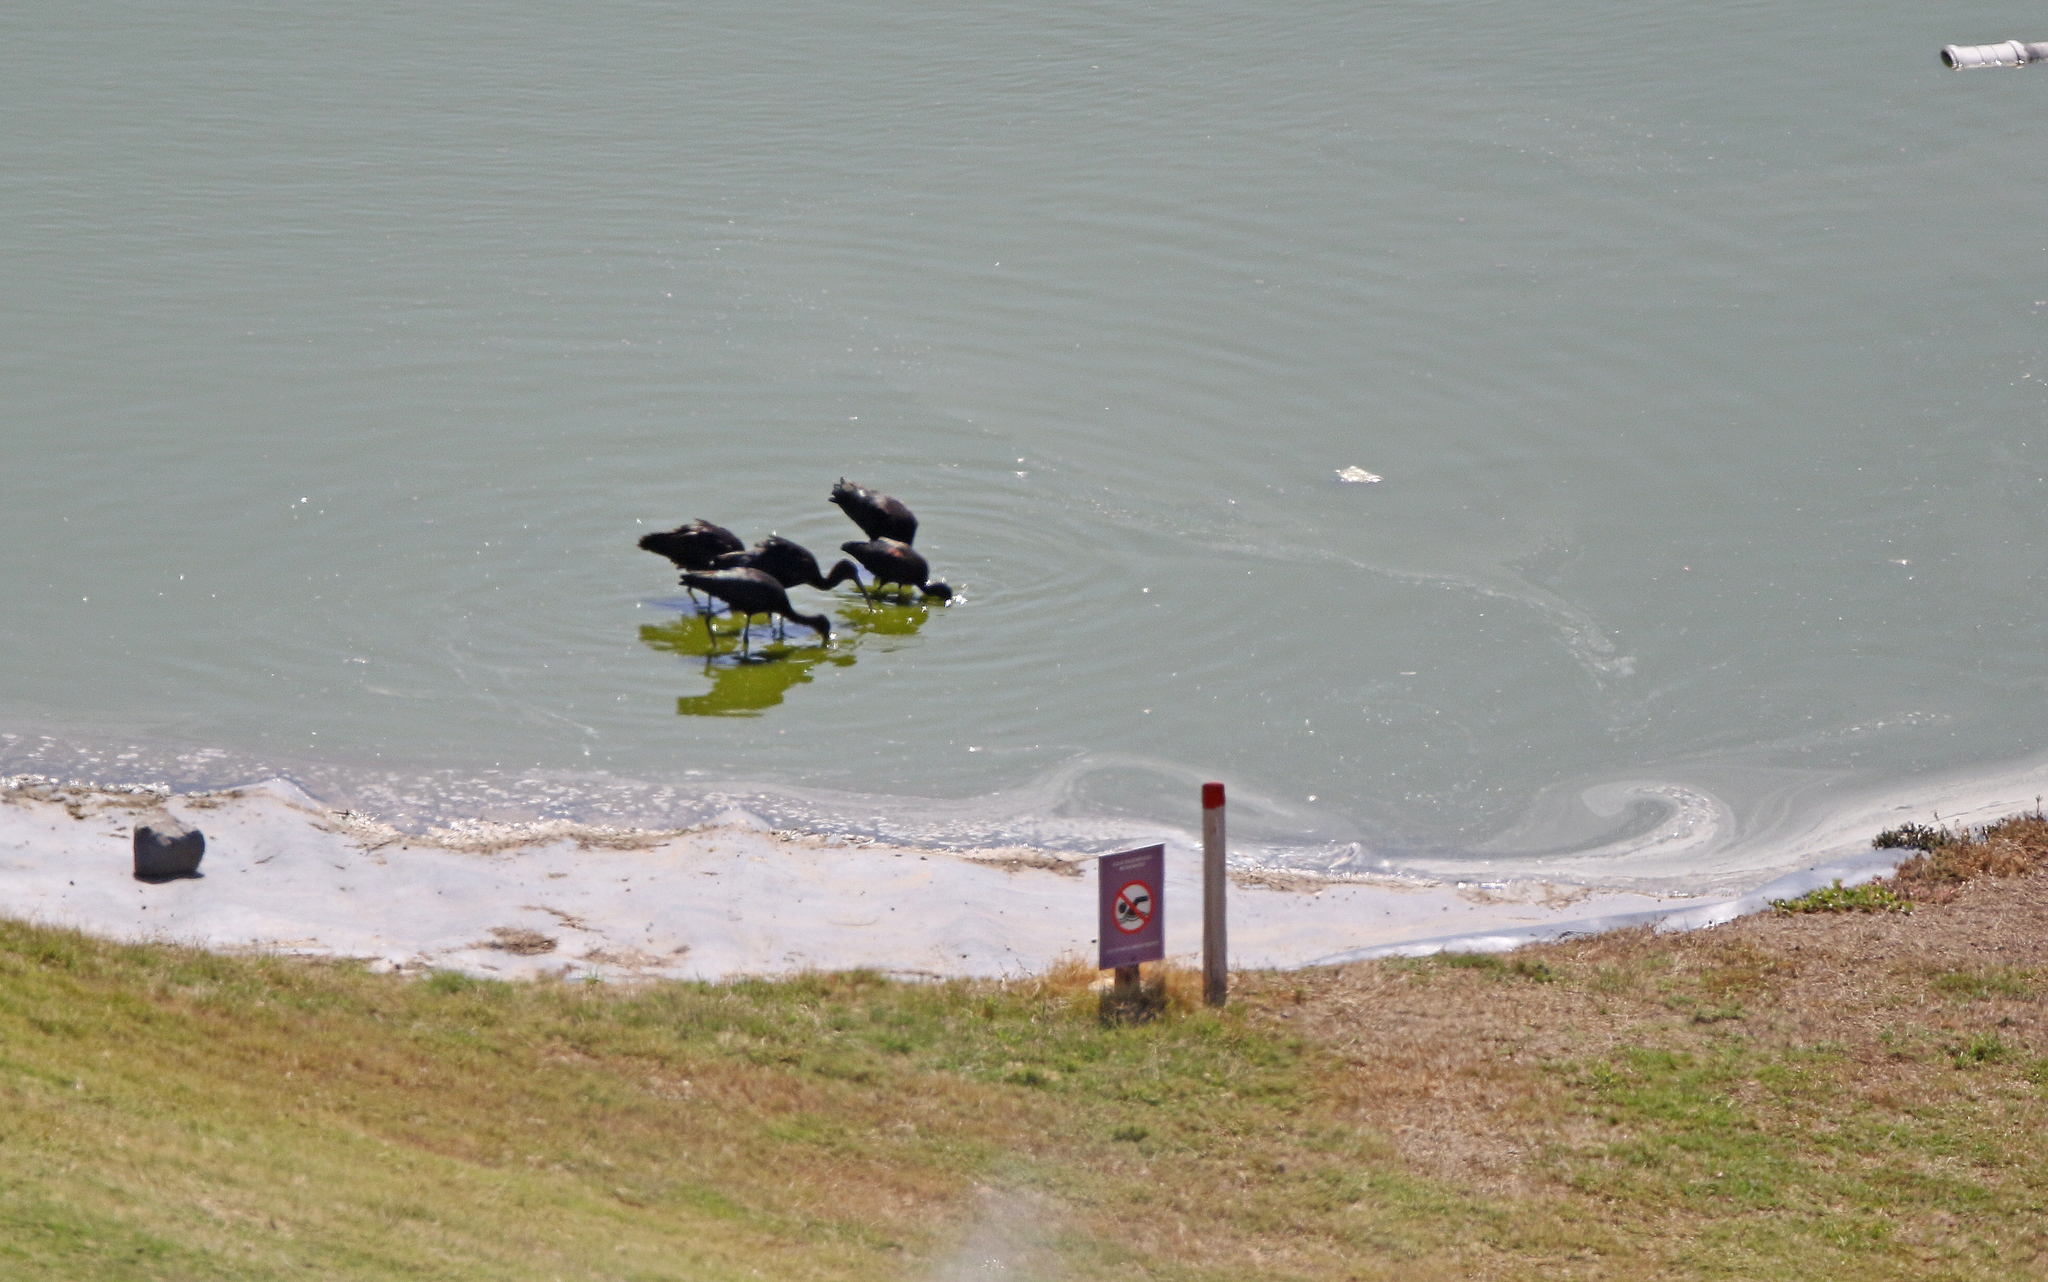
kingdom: Animalia
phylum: Chordata
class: Aves
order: Pelecaniformes
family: Threskiornithidae
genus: Plegadis
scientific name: Plegadis falcinellus
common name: Glossy ibis
